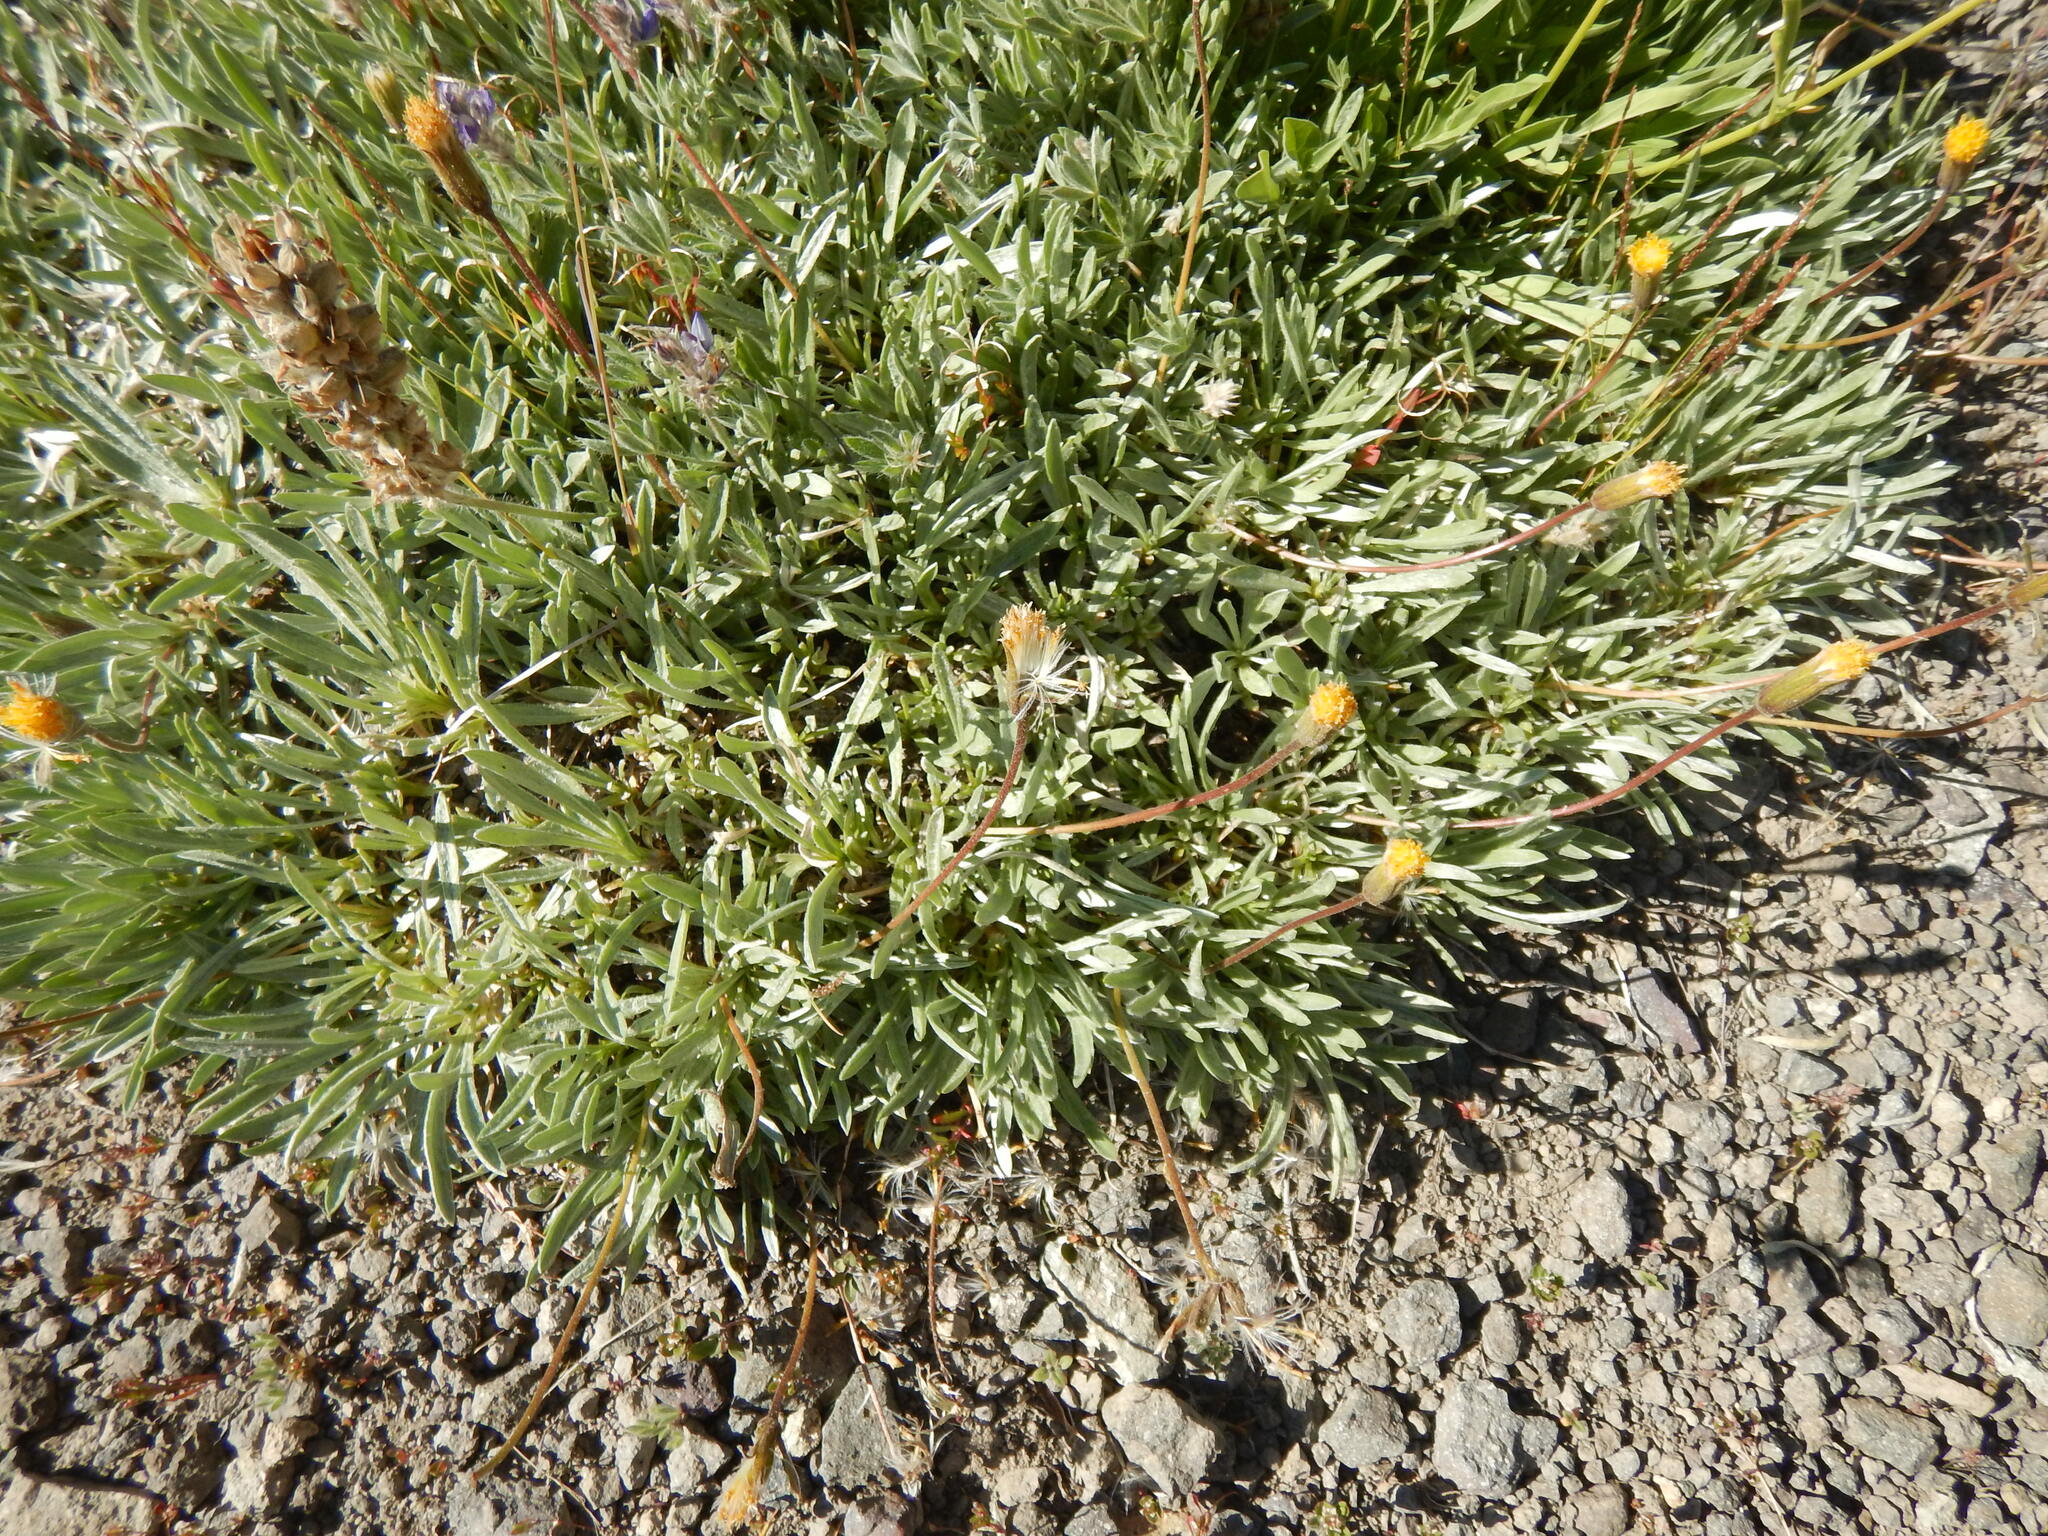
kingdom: Plantae
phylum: Tracheophyta
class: Magnoliopsida
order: Asterales
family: Asteraceae
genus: Raillardella
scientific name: Raillardella argentea
